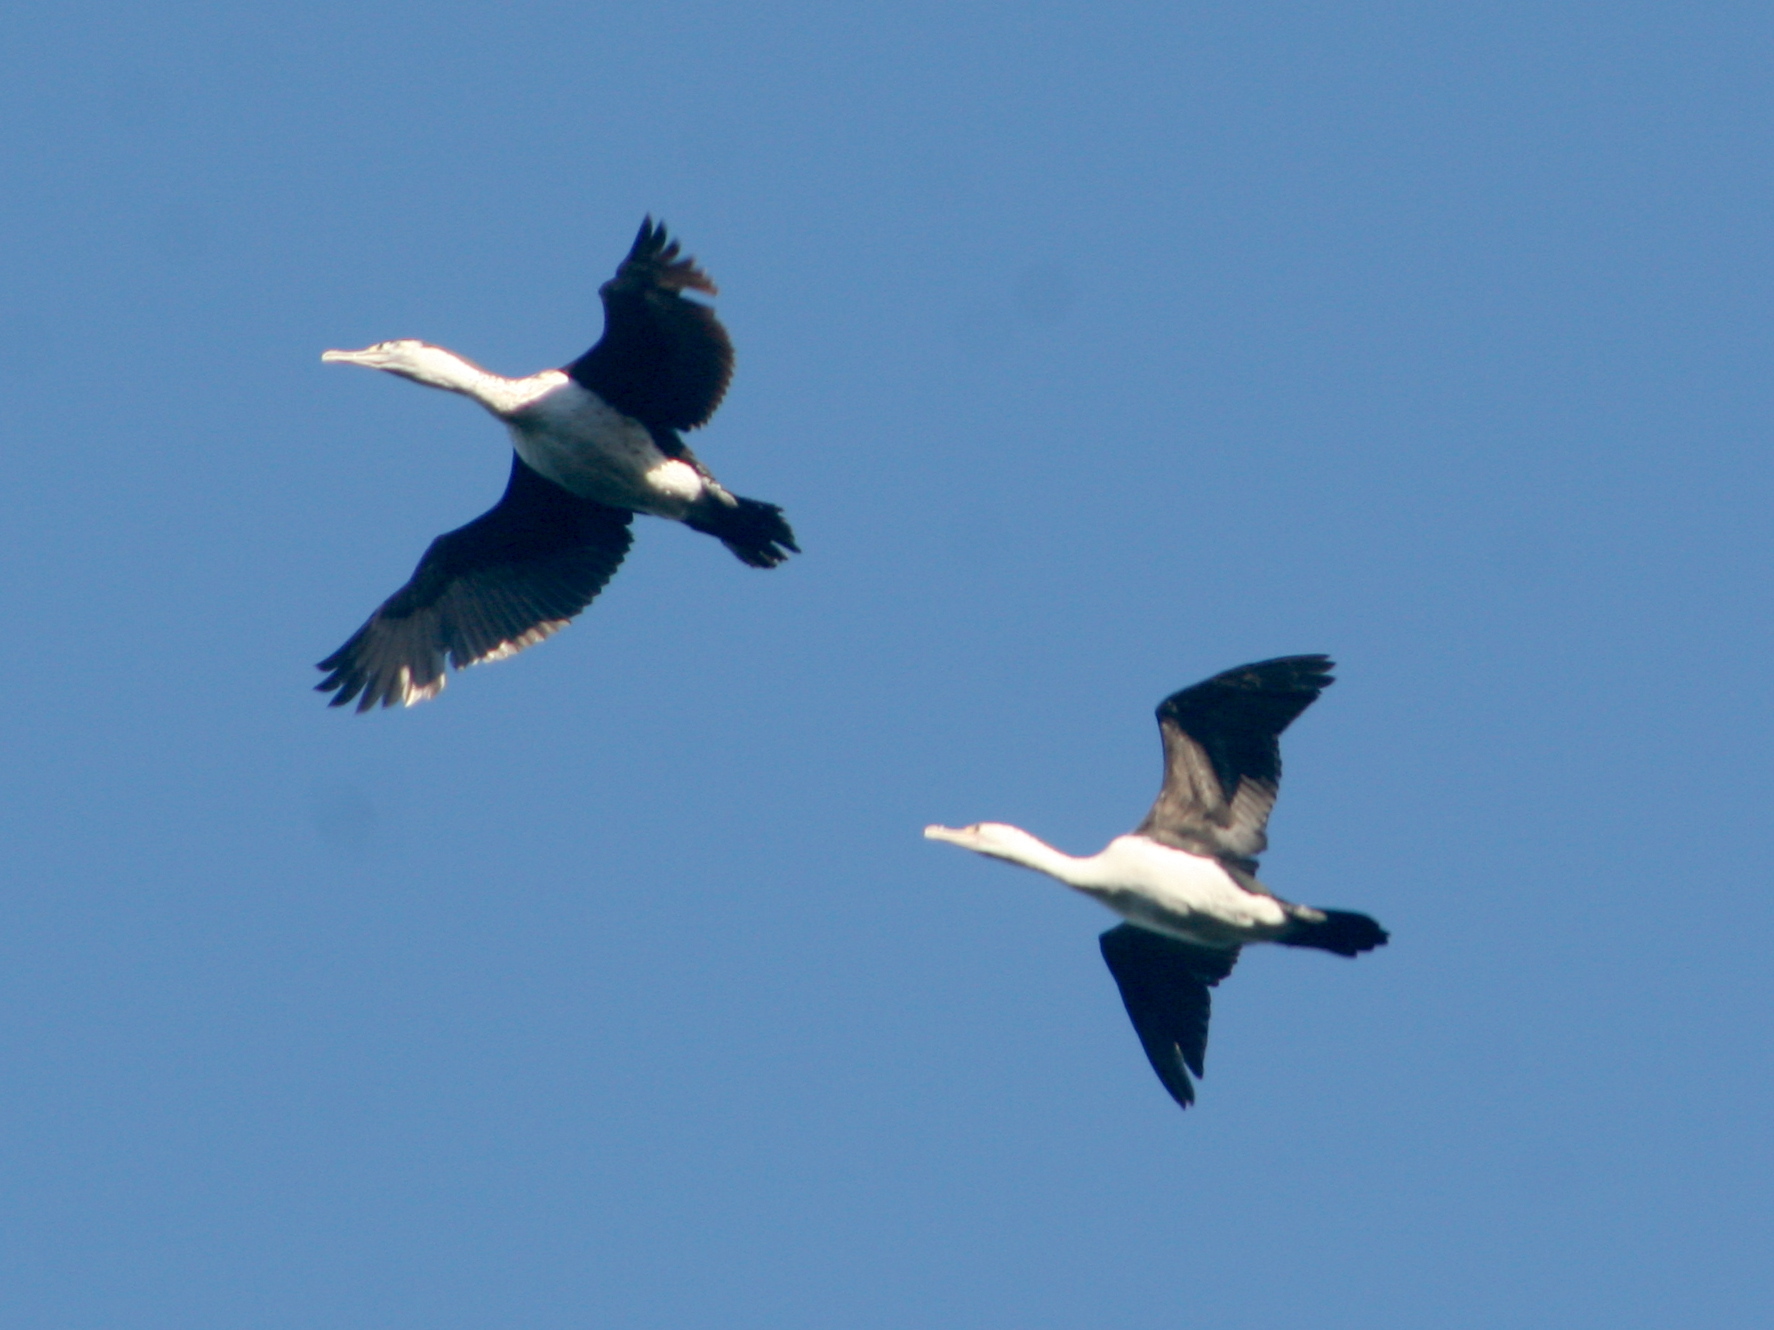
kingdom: Animalia
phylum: Chordata
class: Aves
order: Suliformes
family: Phalacrocoracidae
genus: Phalacrocorax
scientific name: Phalacrocorax varius
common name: Pied cormorant
